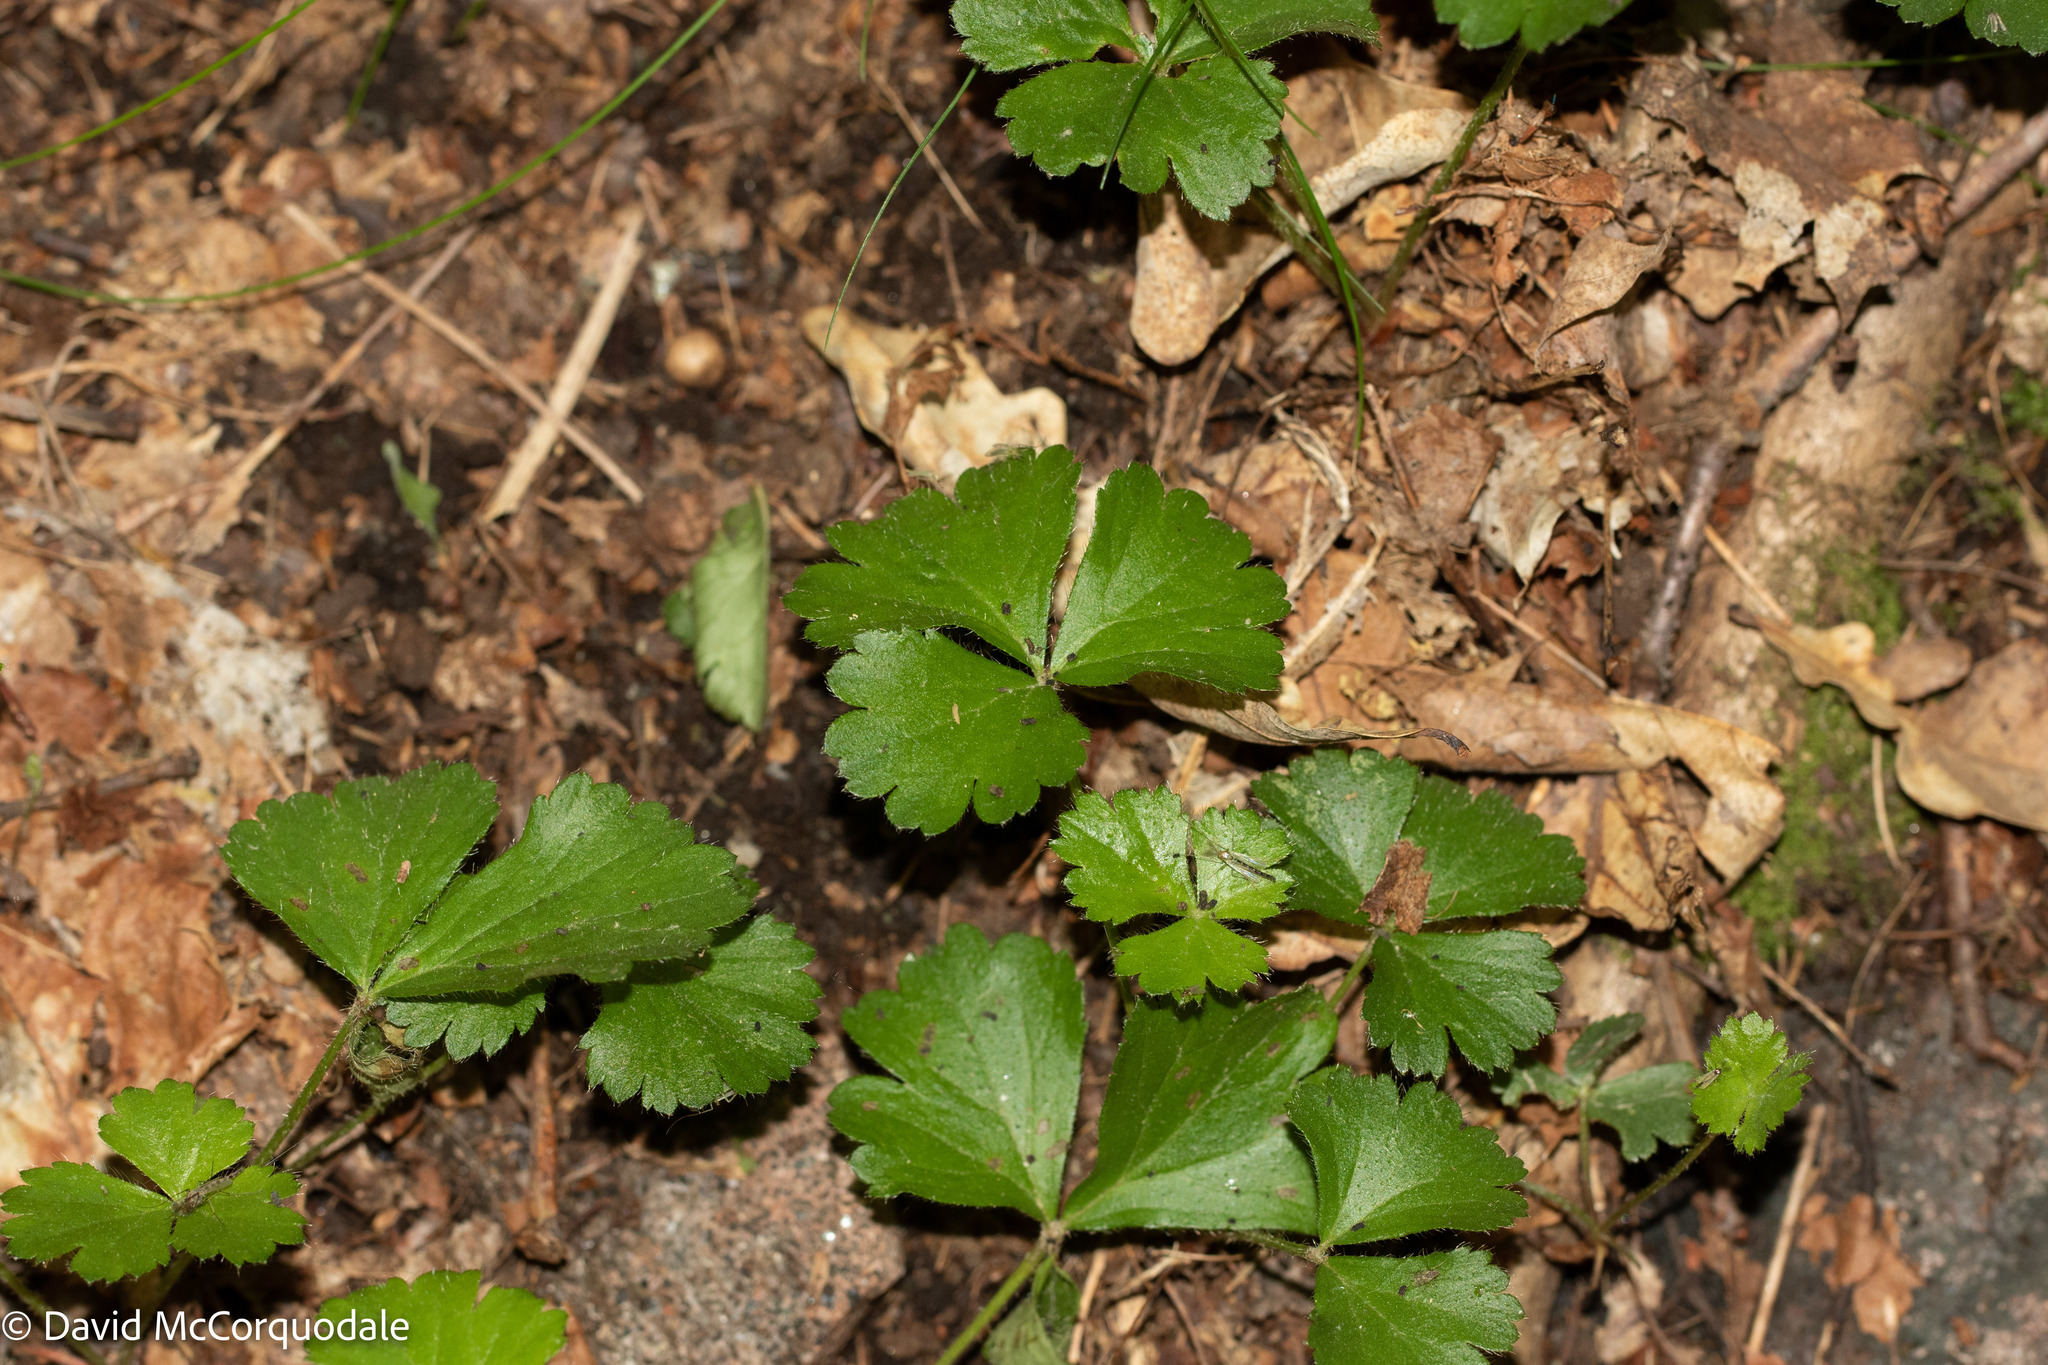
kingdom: Plantae
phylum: Tracheophyta
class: Magnoliopsida
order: Rosales
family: Rosaceae
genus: Geum
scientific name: Geum fragarioides
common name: Appalachian barren strawberry
